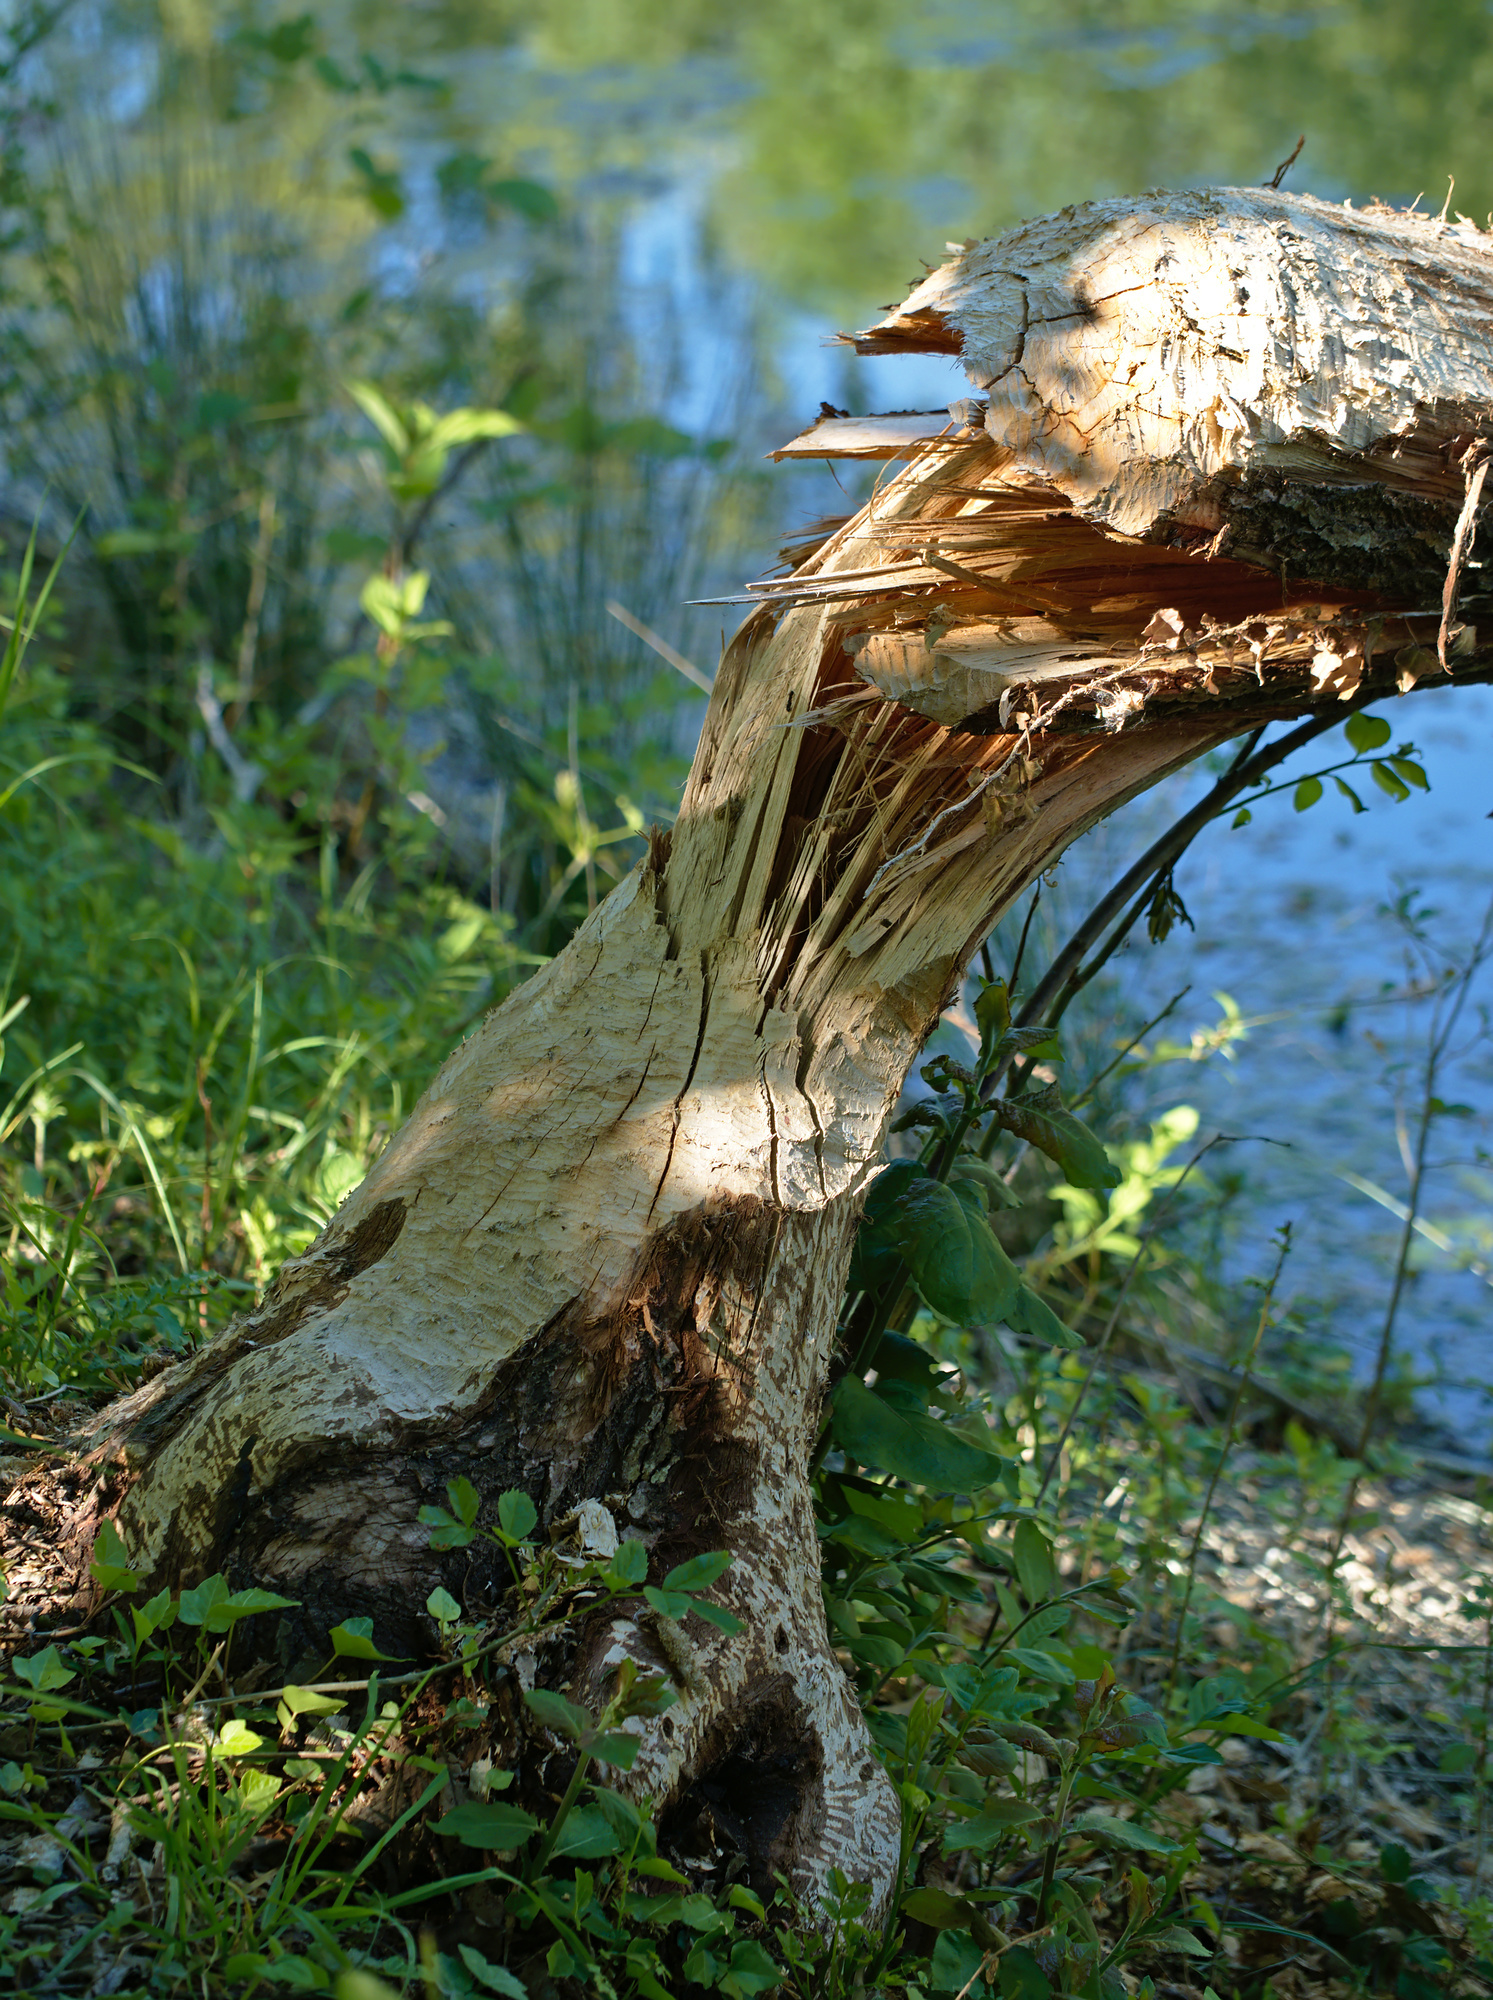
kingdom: Animalia
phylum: Chordata
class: Mammalia
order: Rodentia
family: Castoridae
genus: Castor
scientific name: Castor fiber
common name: Eurasian beaver
